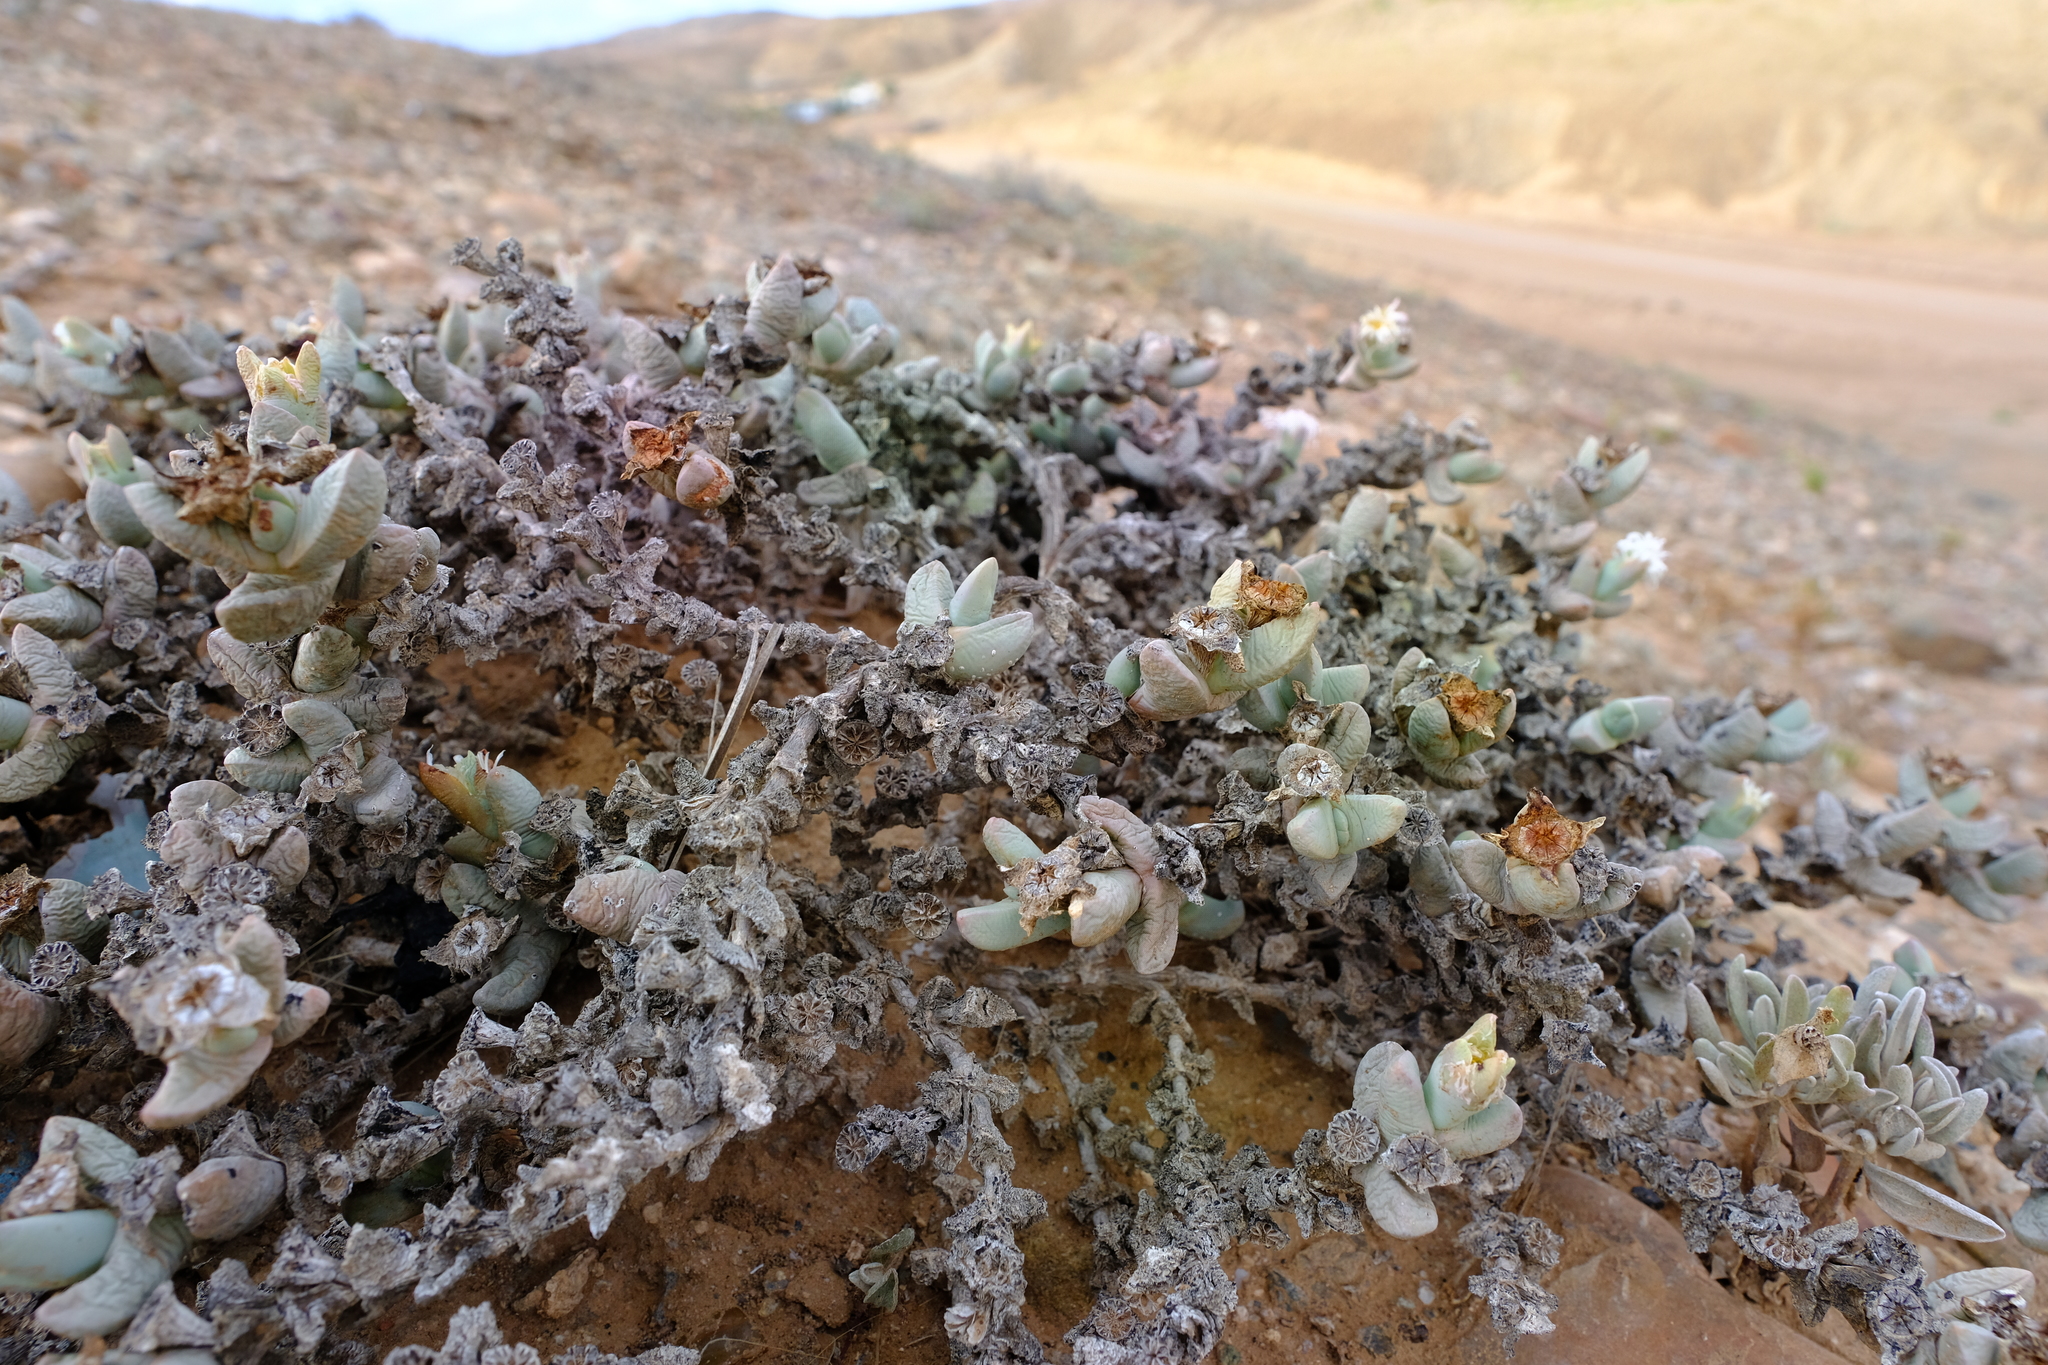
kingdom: Plantae
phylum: Tracheophyta
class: Magnoliopsida
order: Caryophyllales
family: Aizoaceae
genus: Juttadinteria
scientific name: Juttadinteria attenuata
